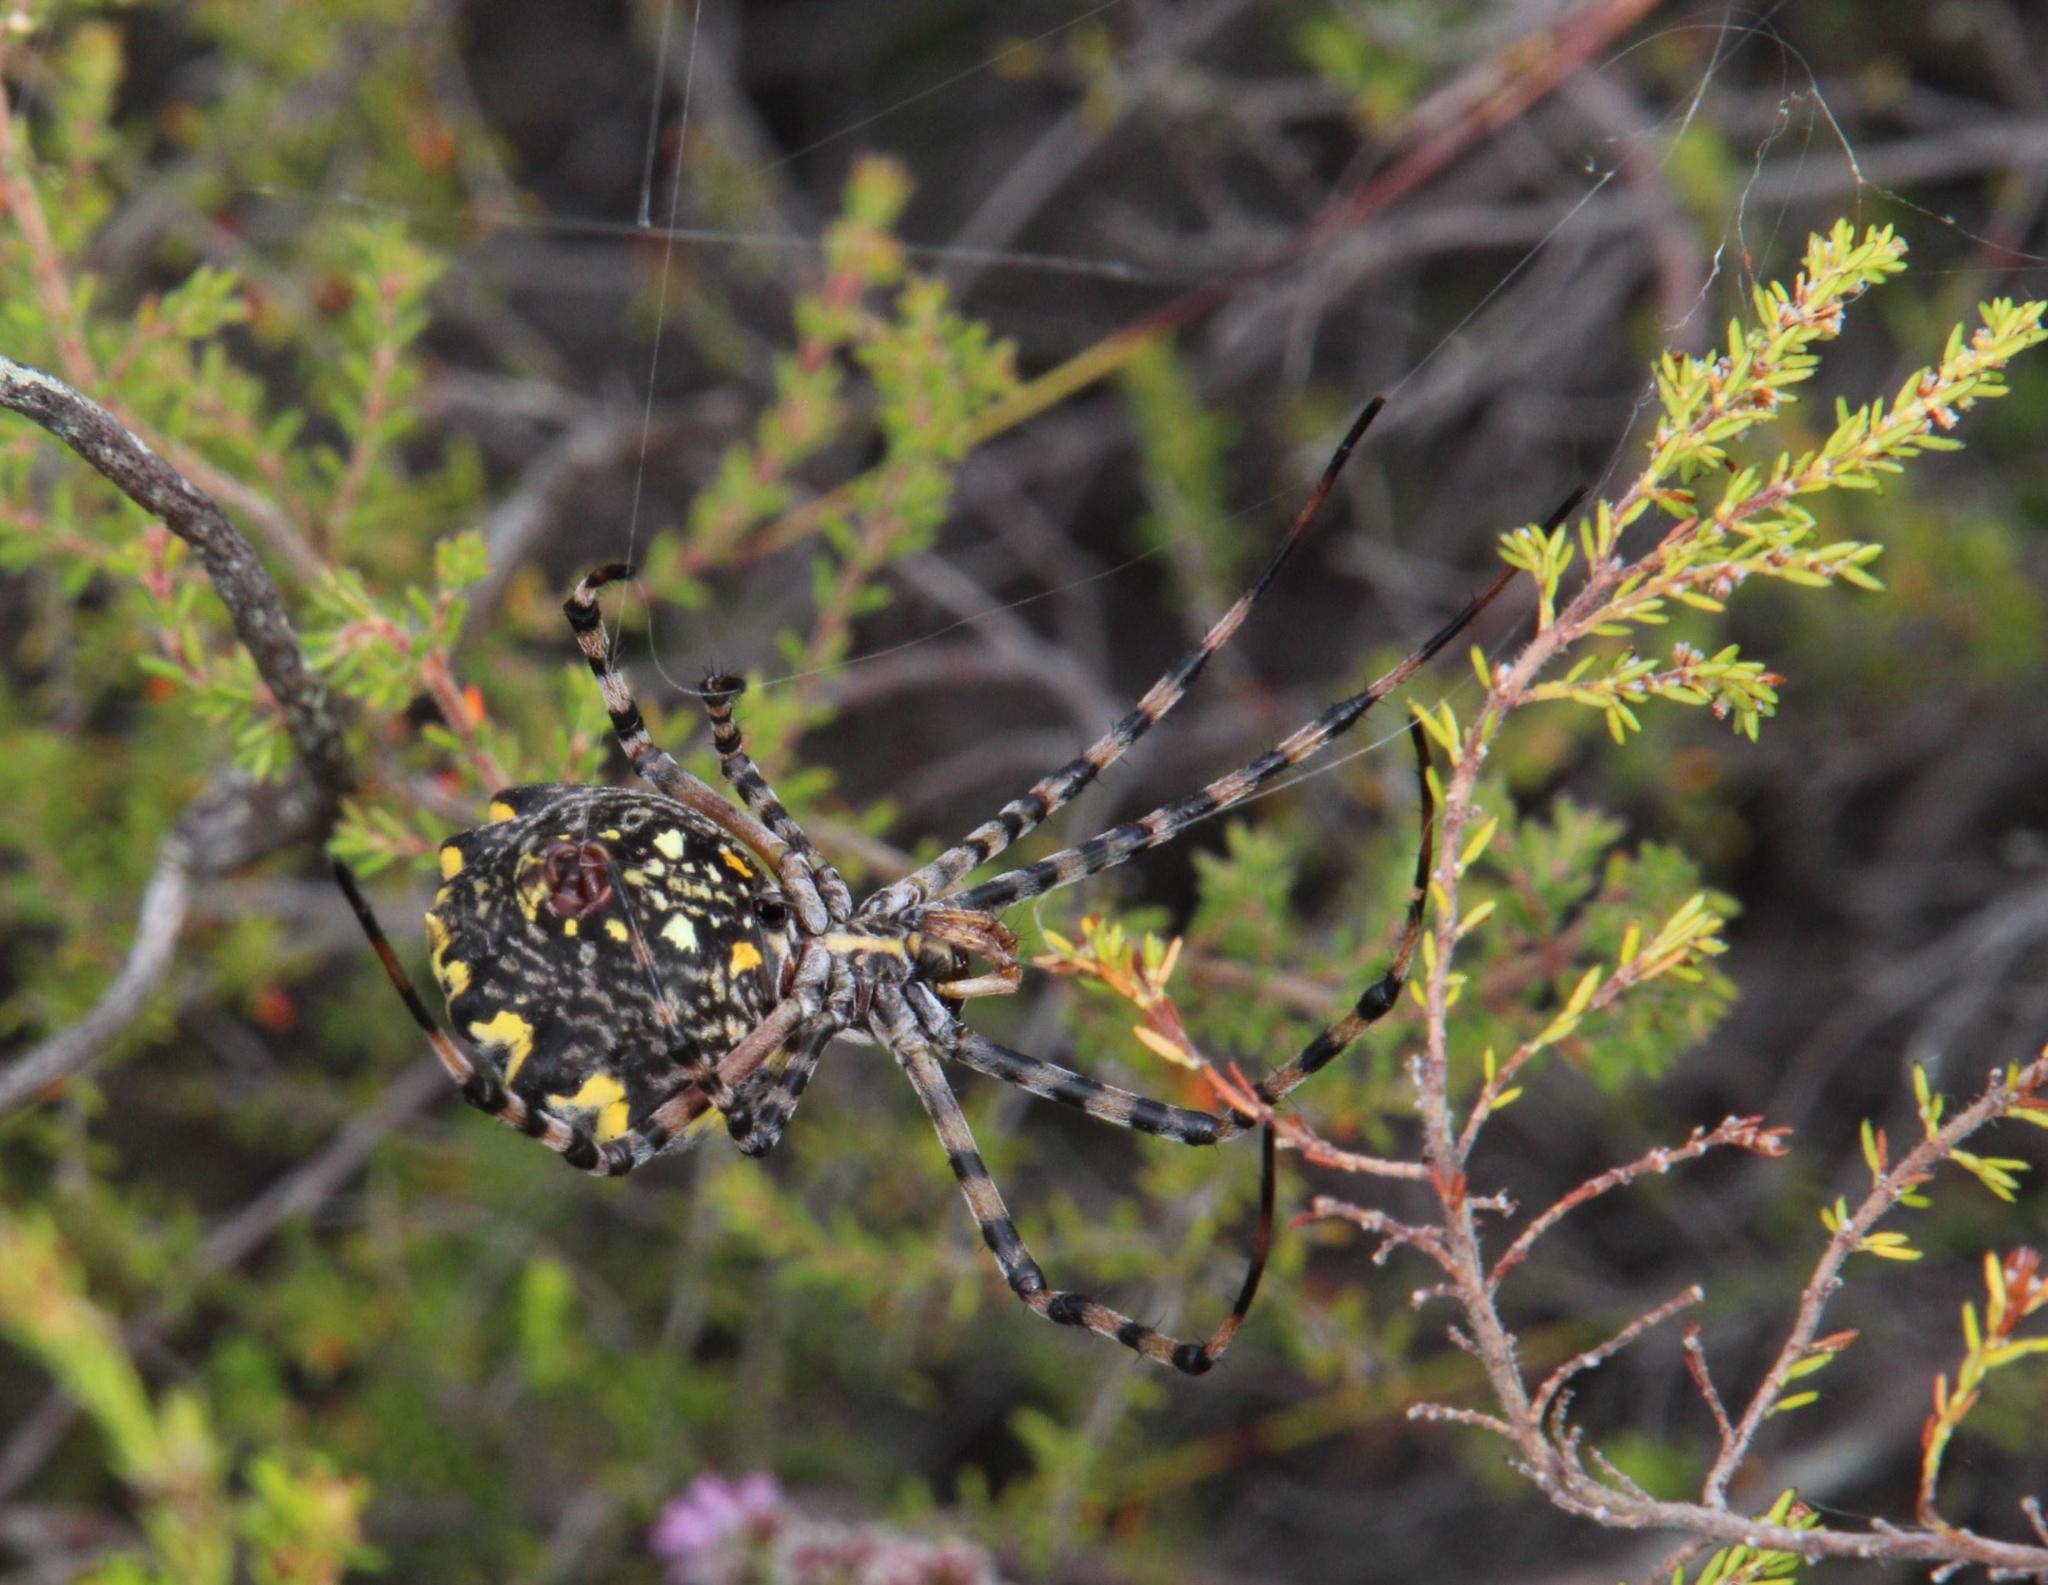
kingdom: Animalia
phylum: Arthropoda
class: Arachnida
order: Araneae
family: Araneidae
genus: Argiope
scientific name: Argiope australis
